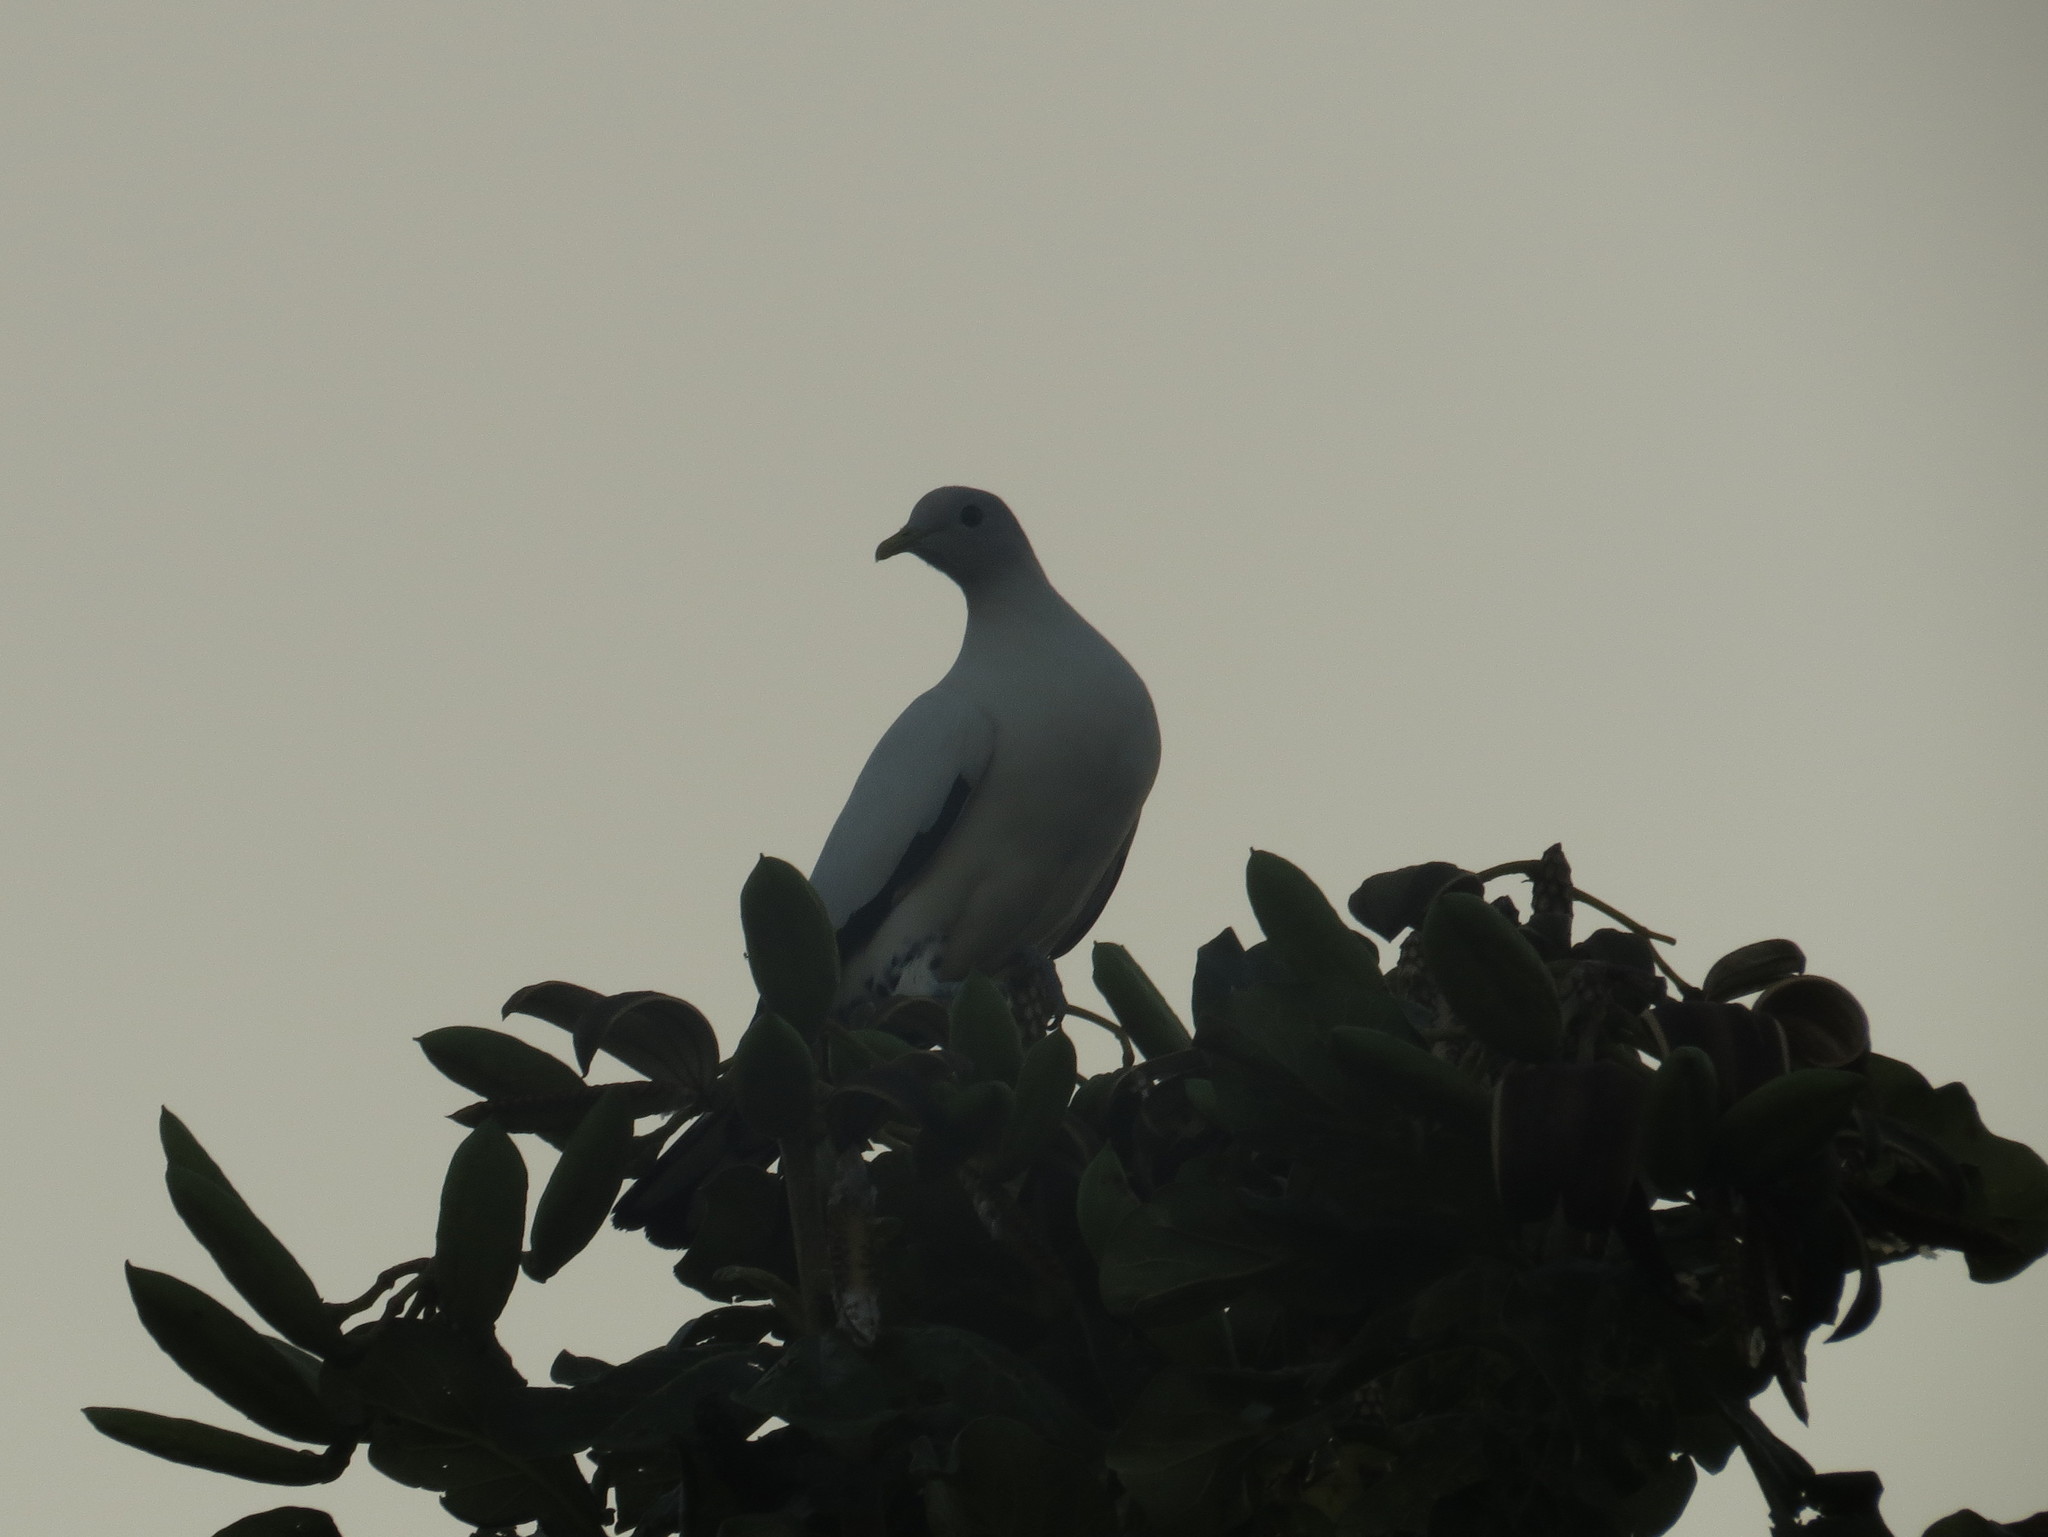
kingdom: Animalia
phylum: Chordata
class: Aves
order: Columbiformes
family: Columbidae
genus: Ducula
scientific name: Ducula spilorrhoa
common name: Torresian imperial pigeon
